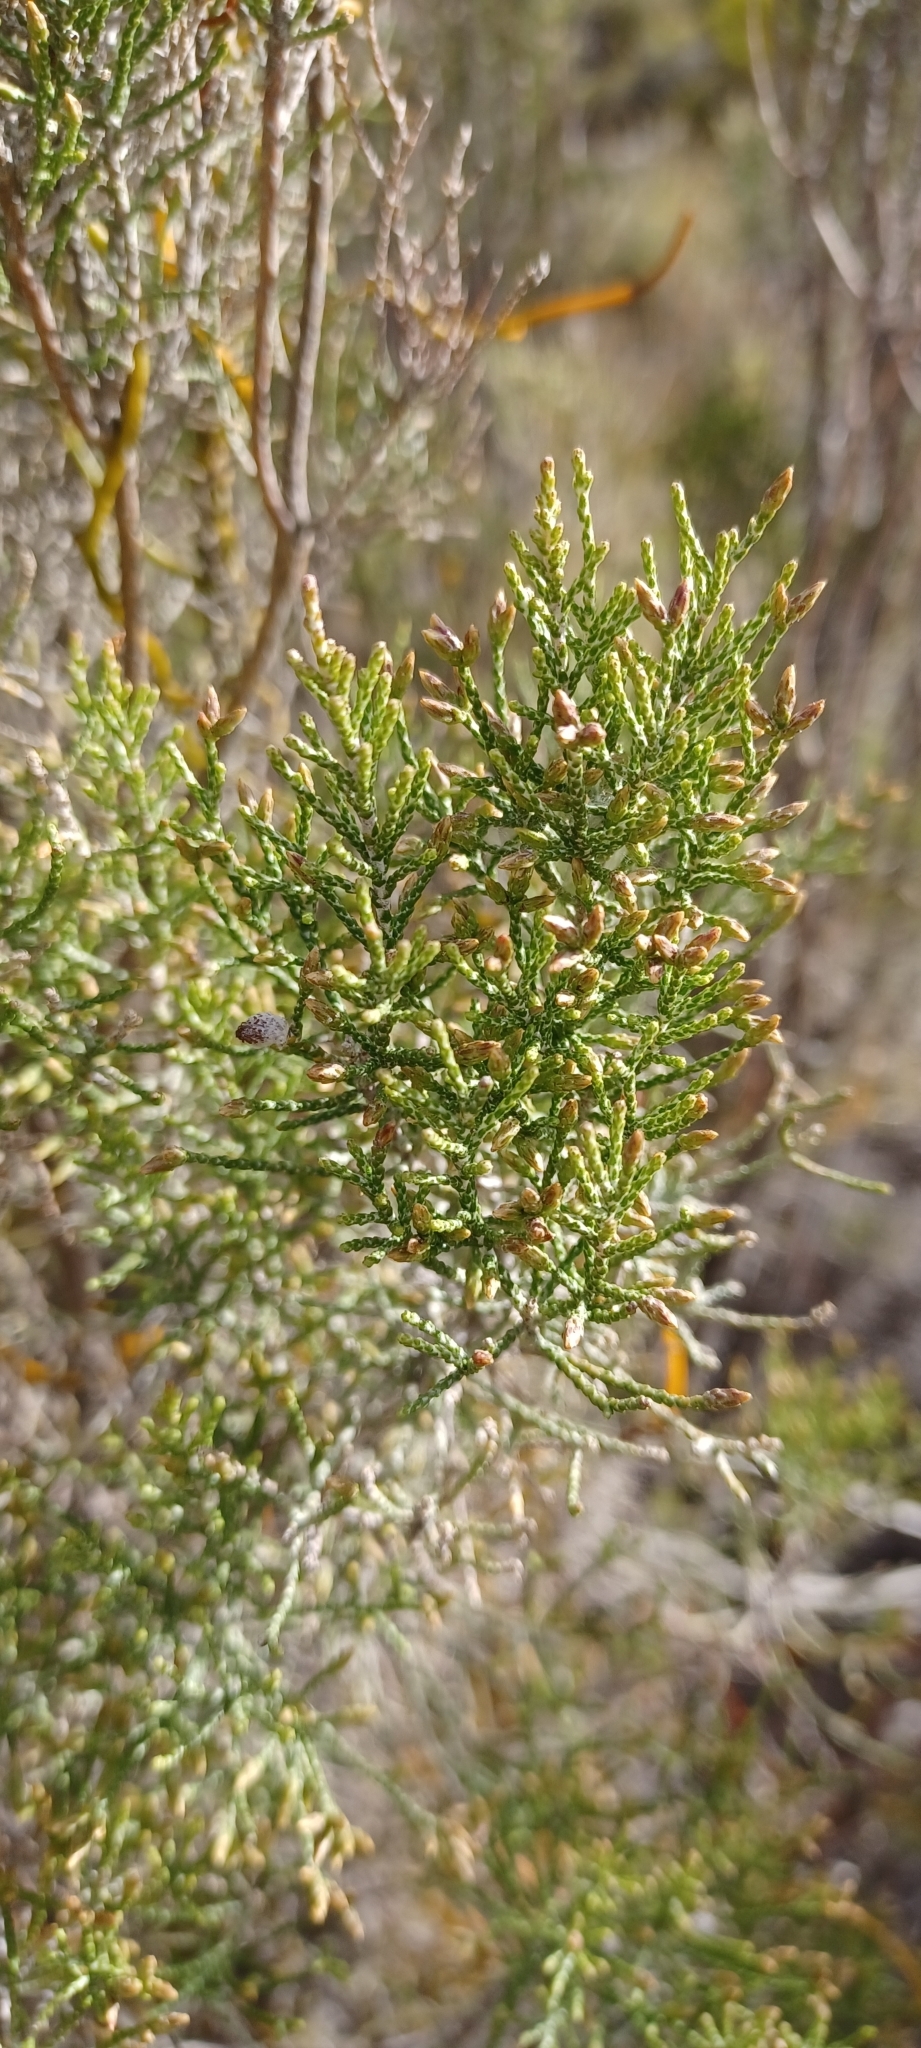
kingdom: Plantae
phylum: Tracheophyta
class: Magnoliopsida
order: Asterales
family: Asteraceae
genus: Dicerothamnus
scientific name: Dicerothamnus rhinocerotis
